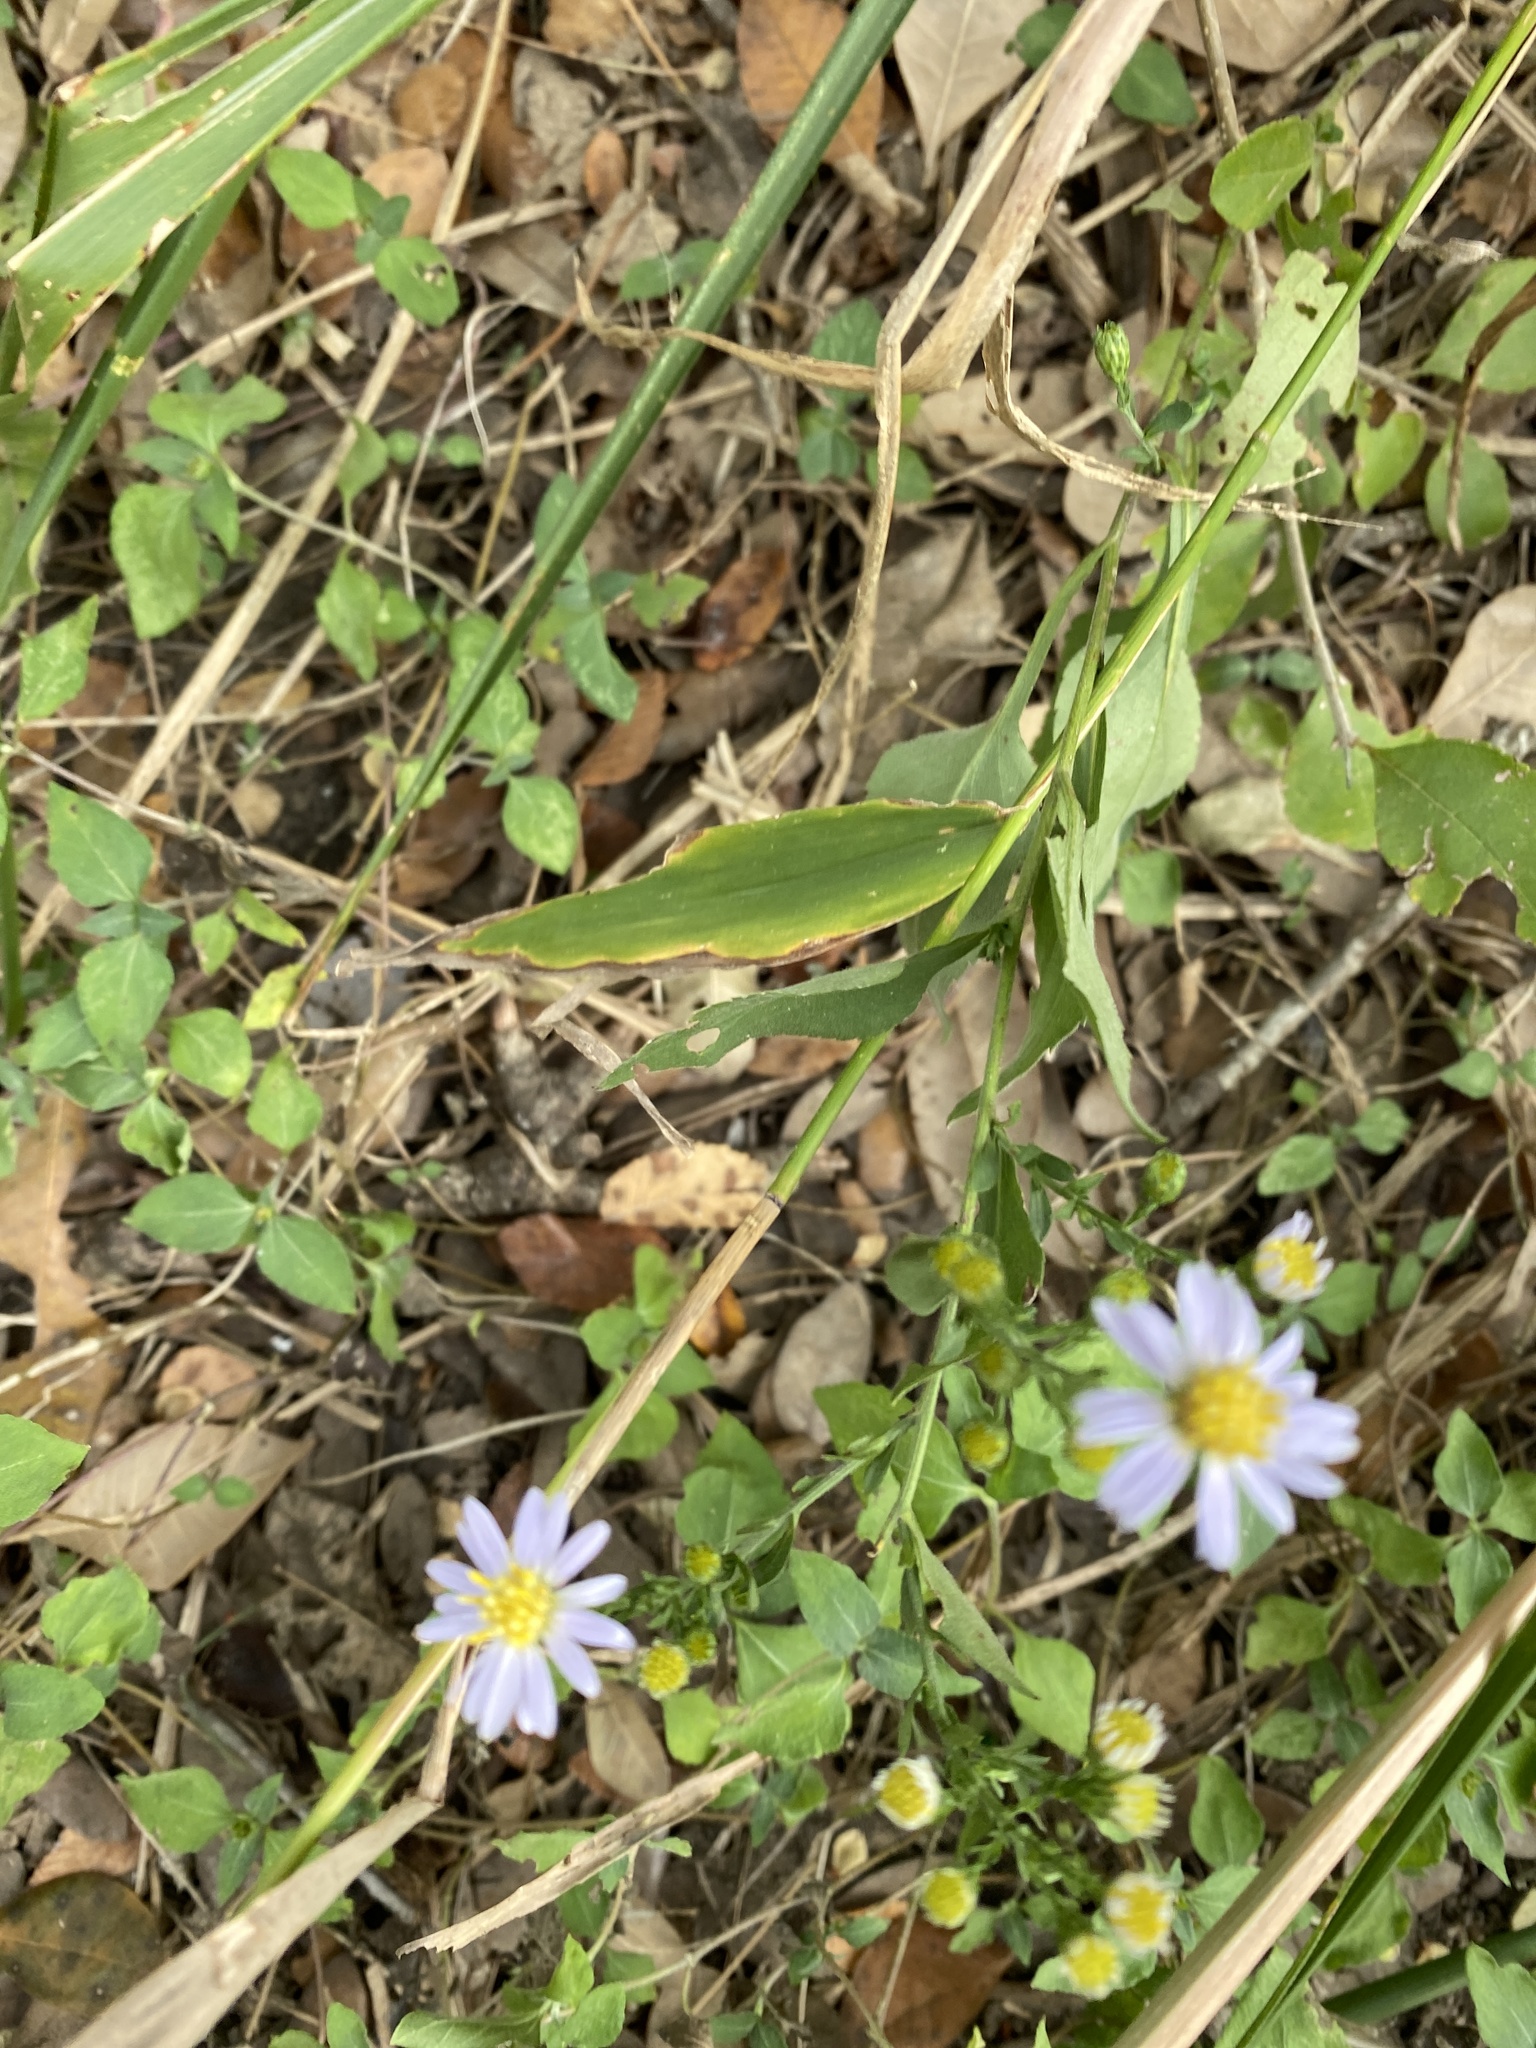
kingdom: Plantae
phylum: Tracheophyta
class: Magnoliopsida
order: Asterales
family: Asteraceae
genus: Symphyotrichum
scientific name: Symphyotrichum divaricatum
